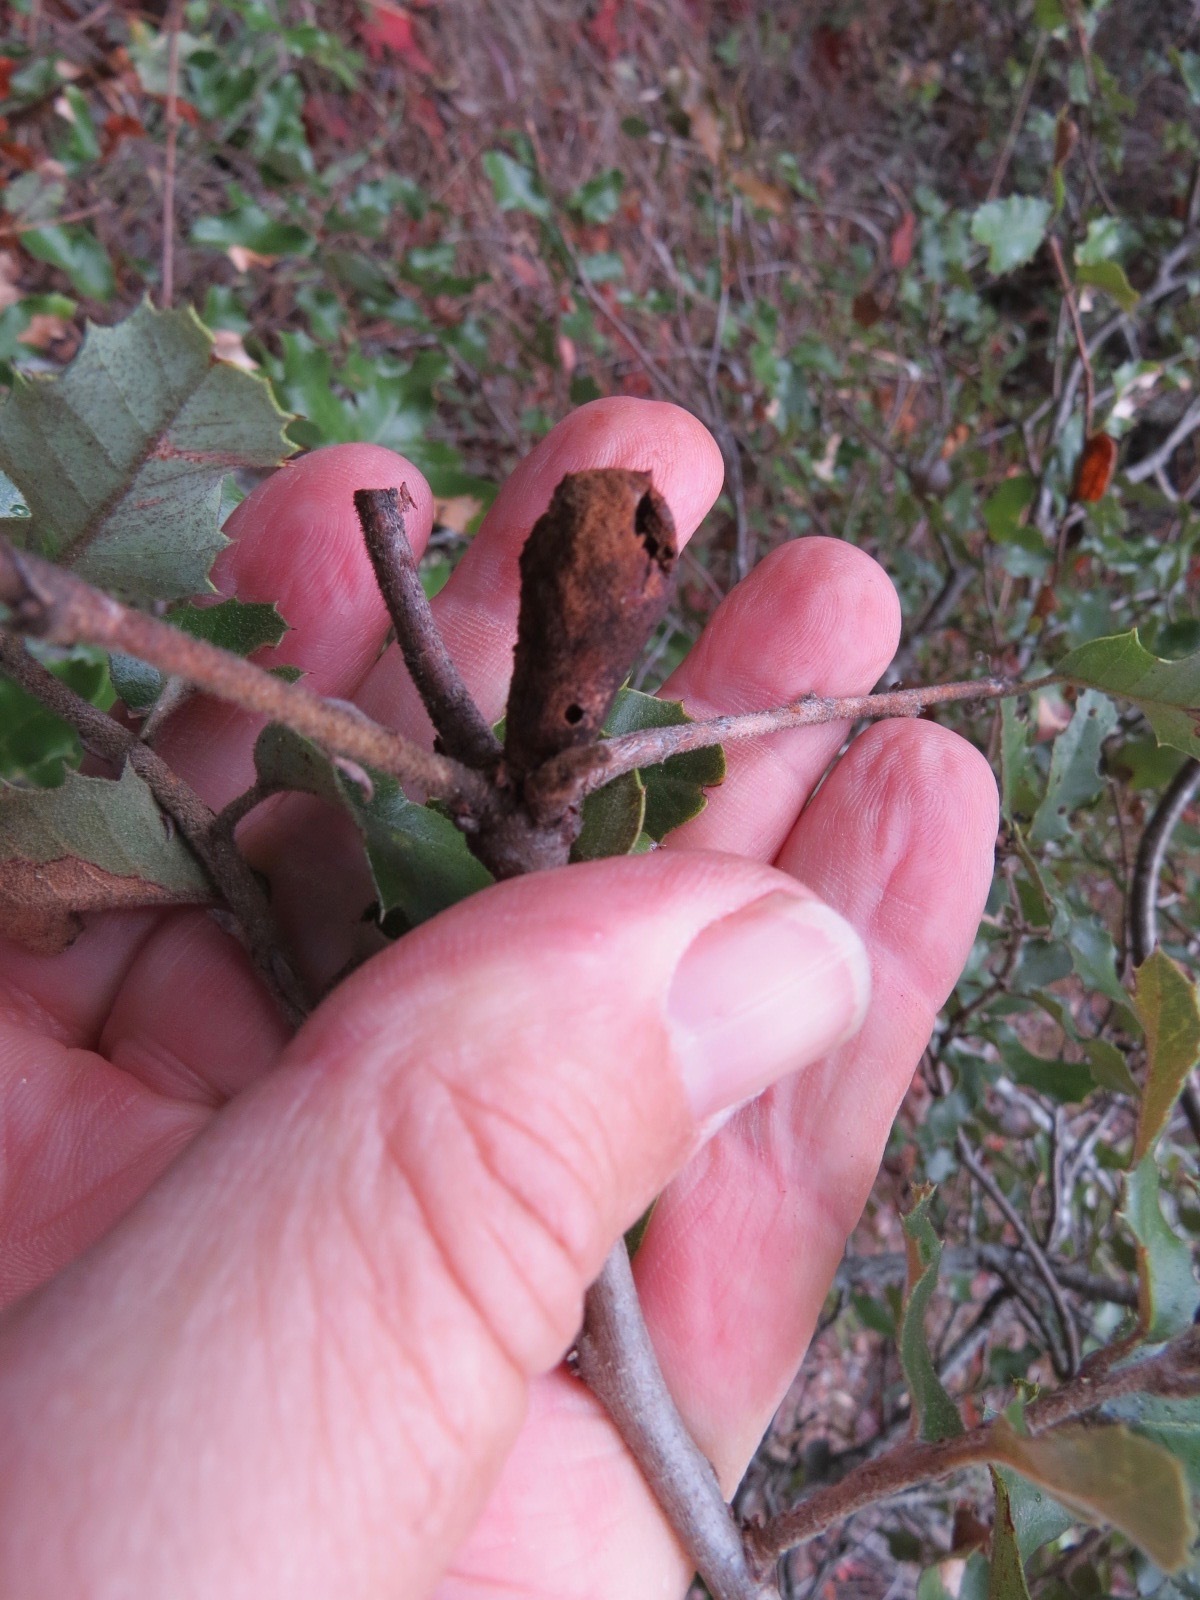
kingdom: Animalia
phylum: Arthropoda
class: Insecta
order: Hymenoptera
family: Cynipidae
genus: Heteroecus
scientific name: Heteroecus
